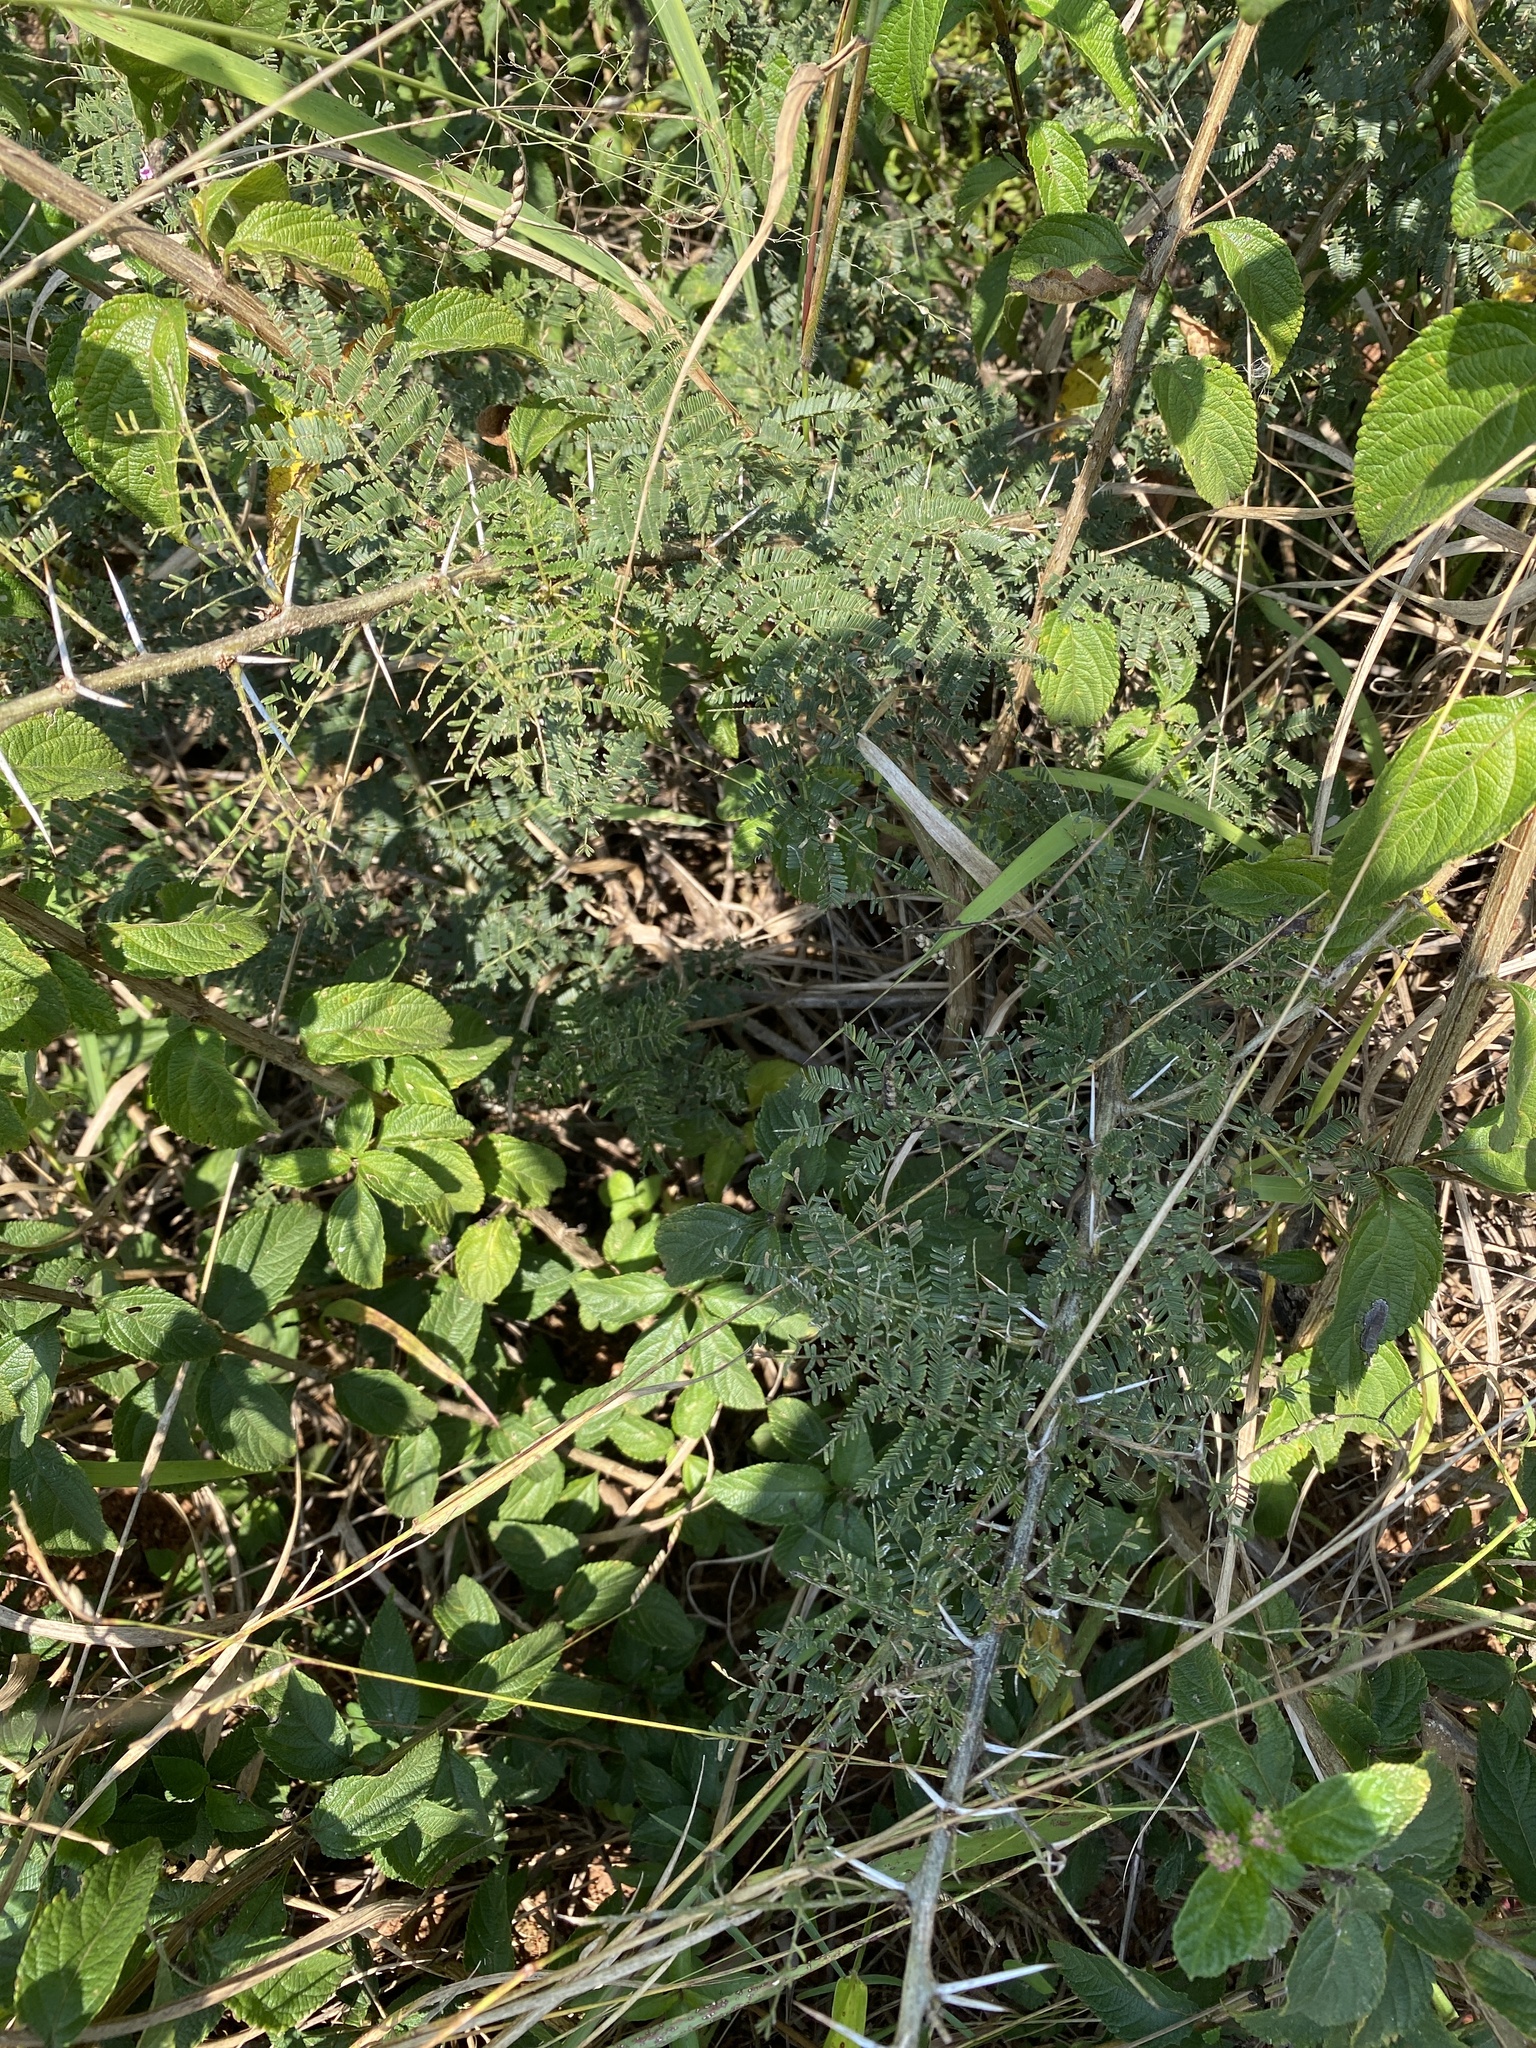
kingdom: Plantae
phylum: Tracheophyta
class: Magnoliopsida
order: Fabales
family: Fabaceae
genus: Vachellia
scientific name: Vachellia natalitia
